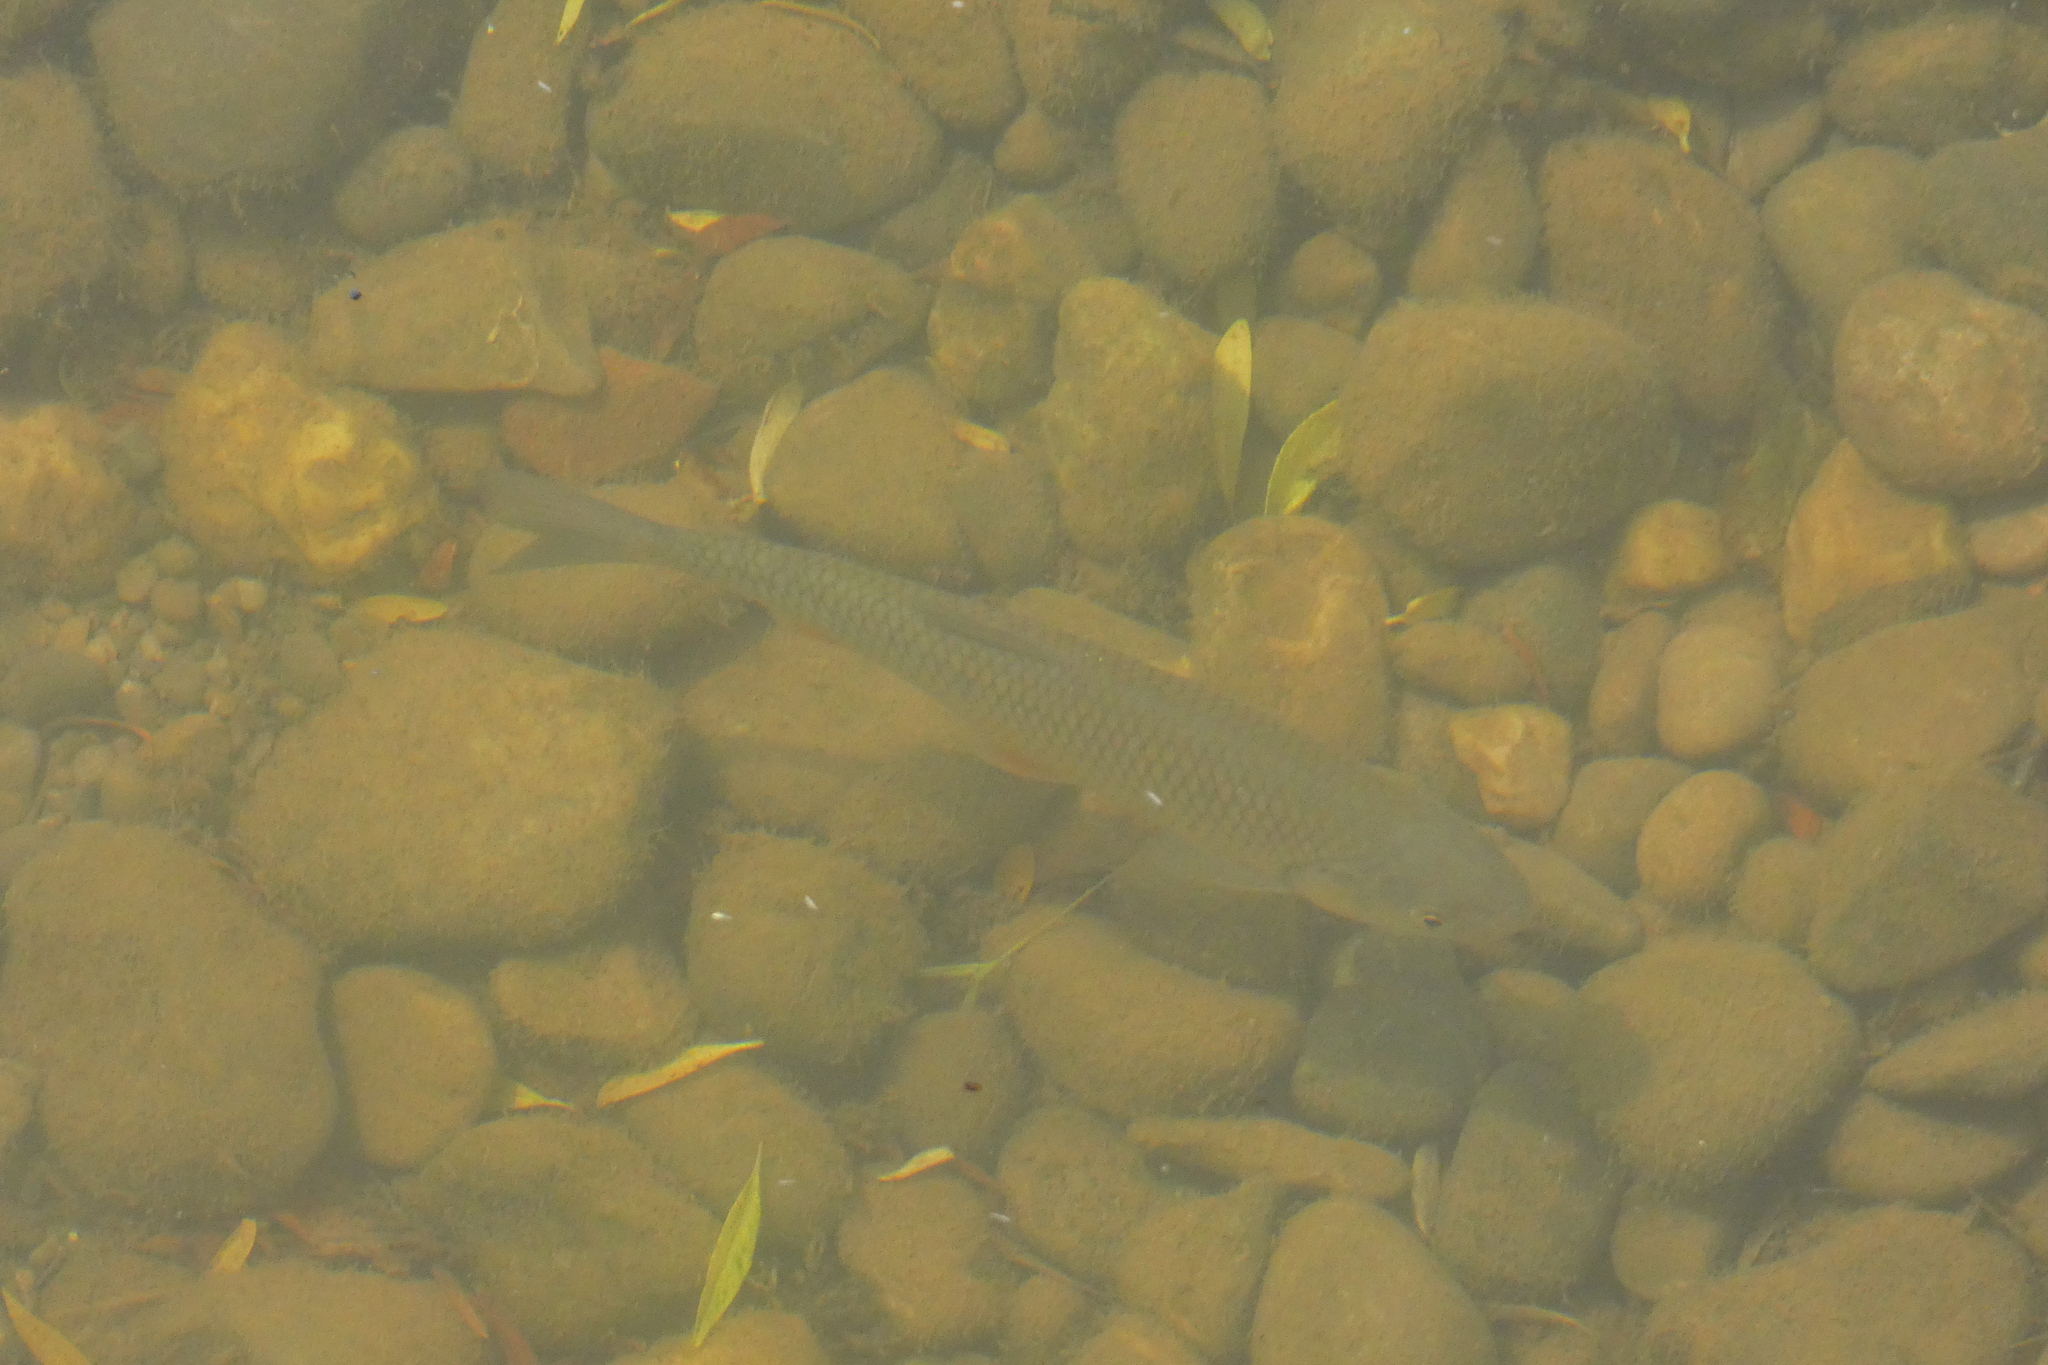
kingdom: Animalia
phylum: Chordata
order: Cypriniformes
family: Cyprinidae
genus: Squalius
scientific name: Squalius cephalus
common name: Chub
